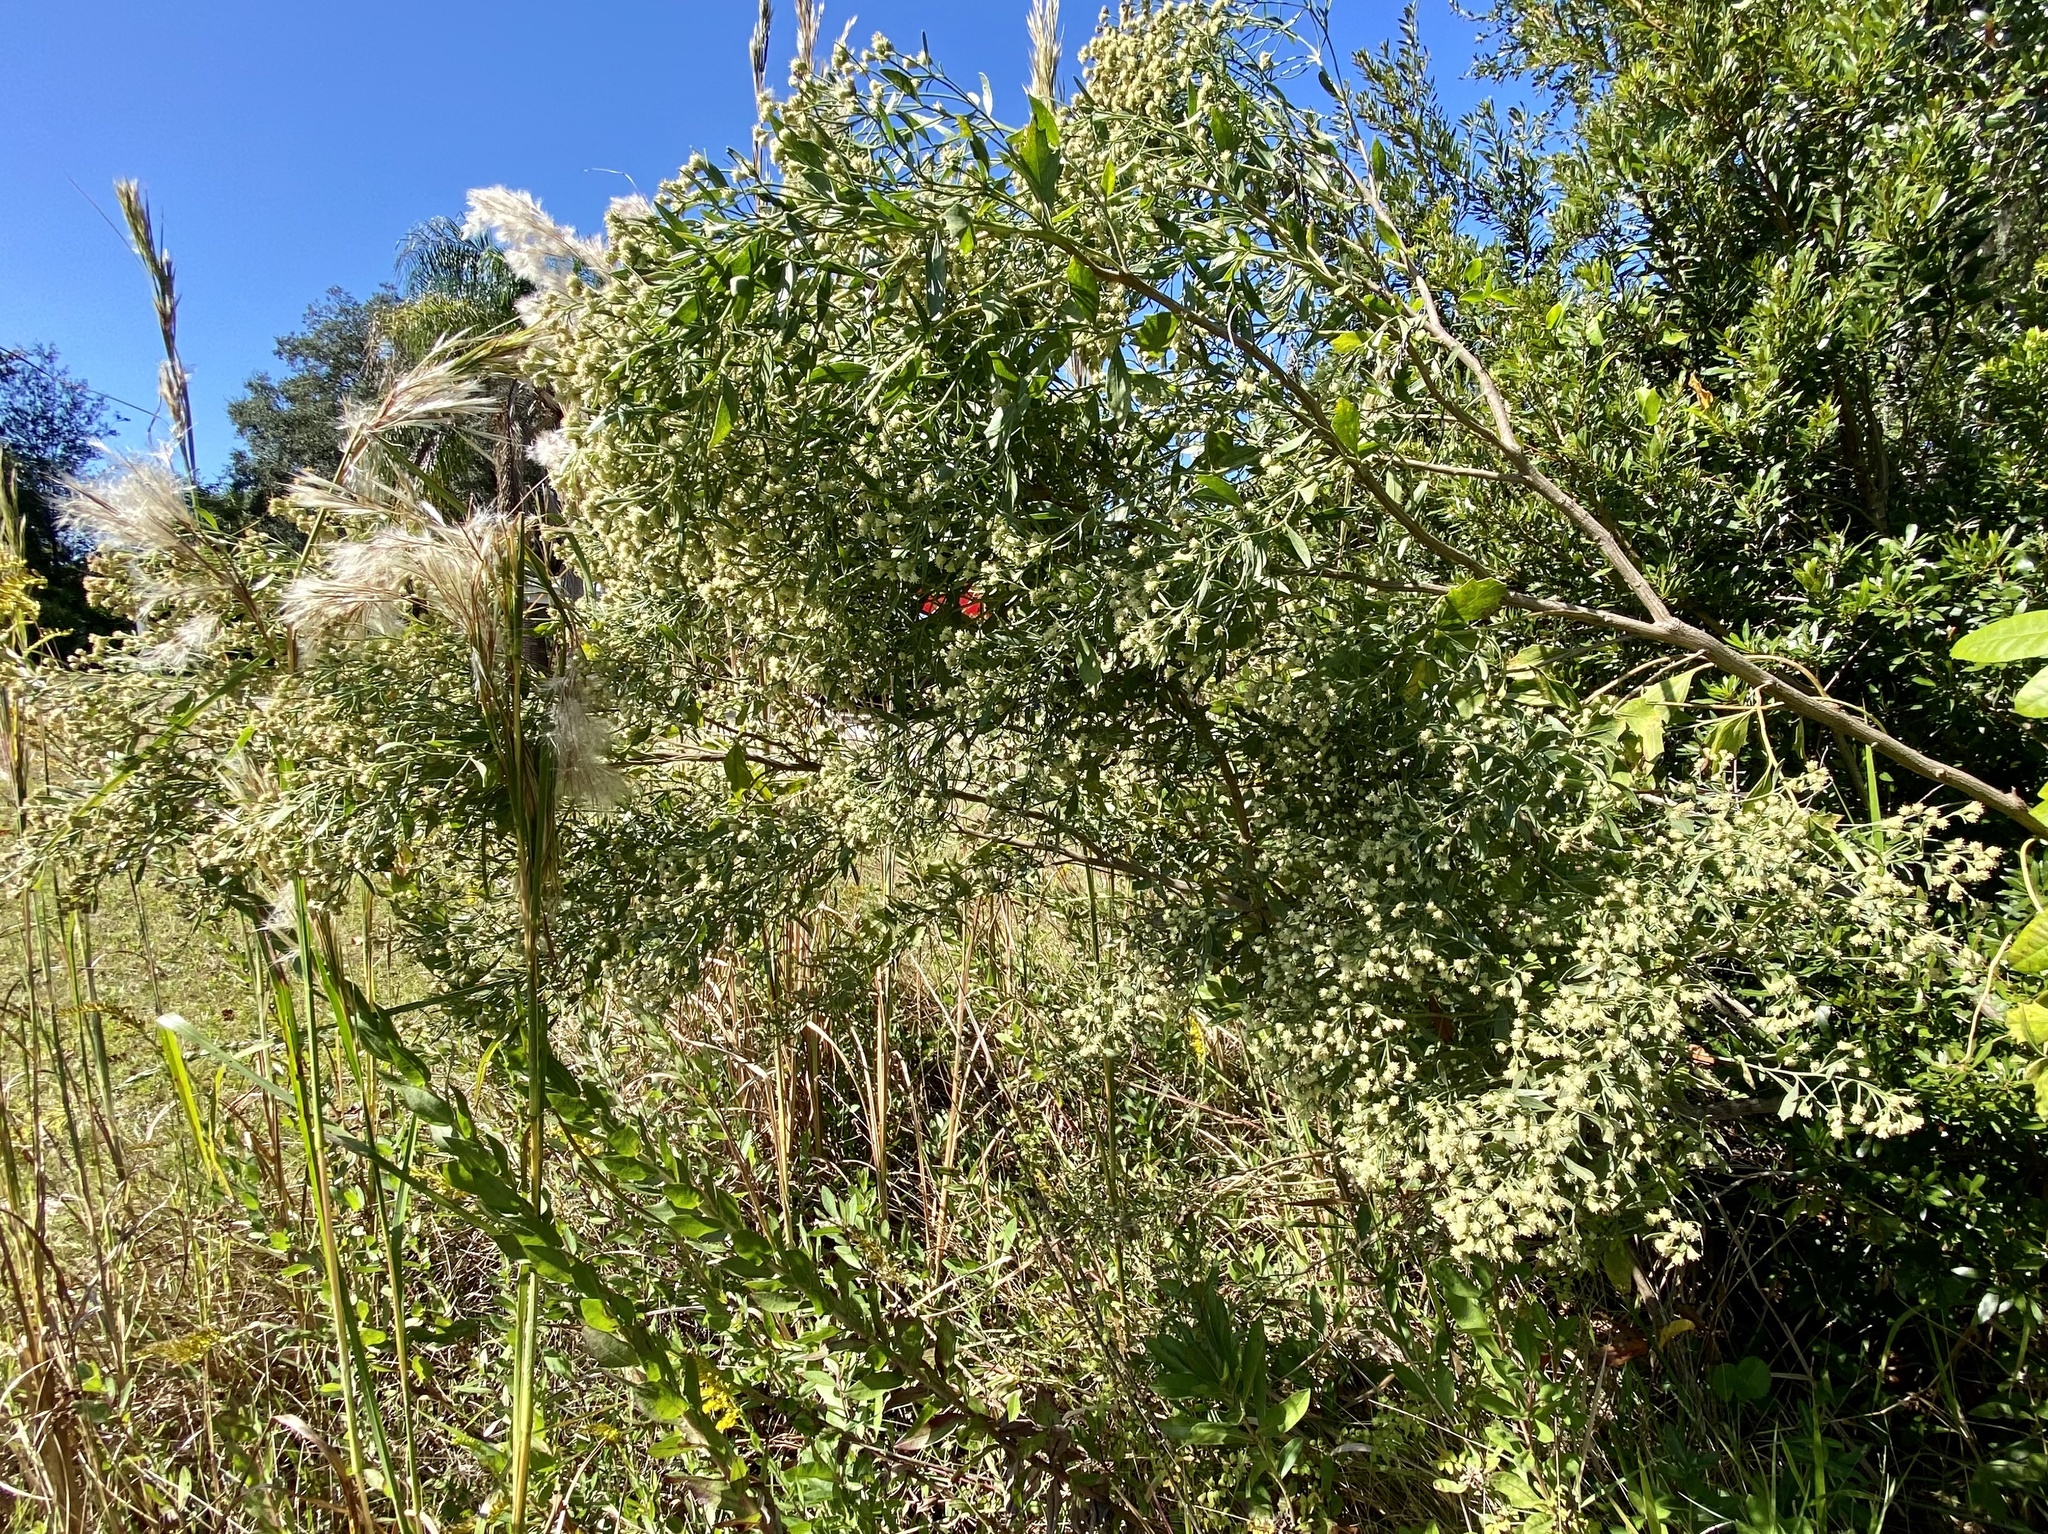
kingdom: Plantae
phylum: Tracheophyta
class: Magnoliopsida
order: Asterales
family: Asteraceae
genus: Baccharis
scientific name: Baccharis halimifolia
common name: Eastern baccharis
